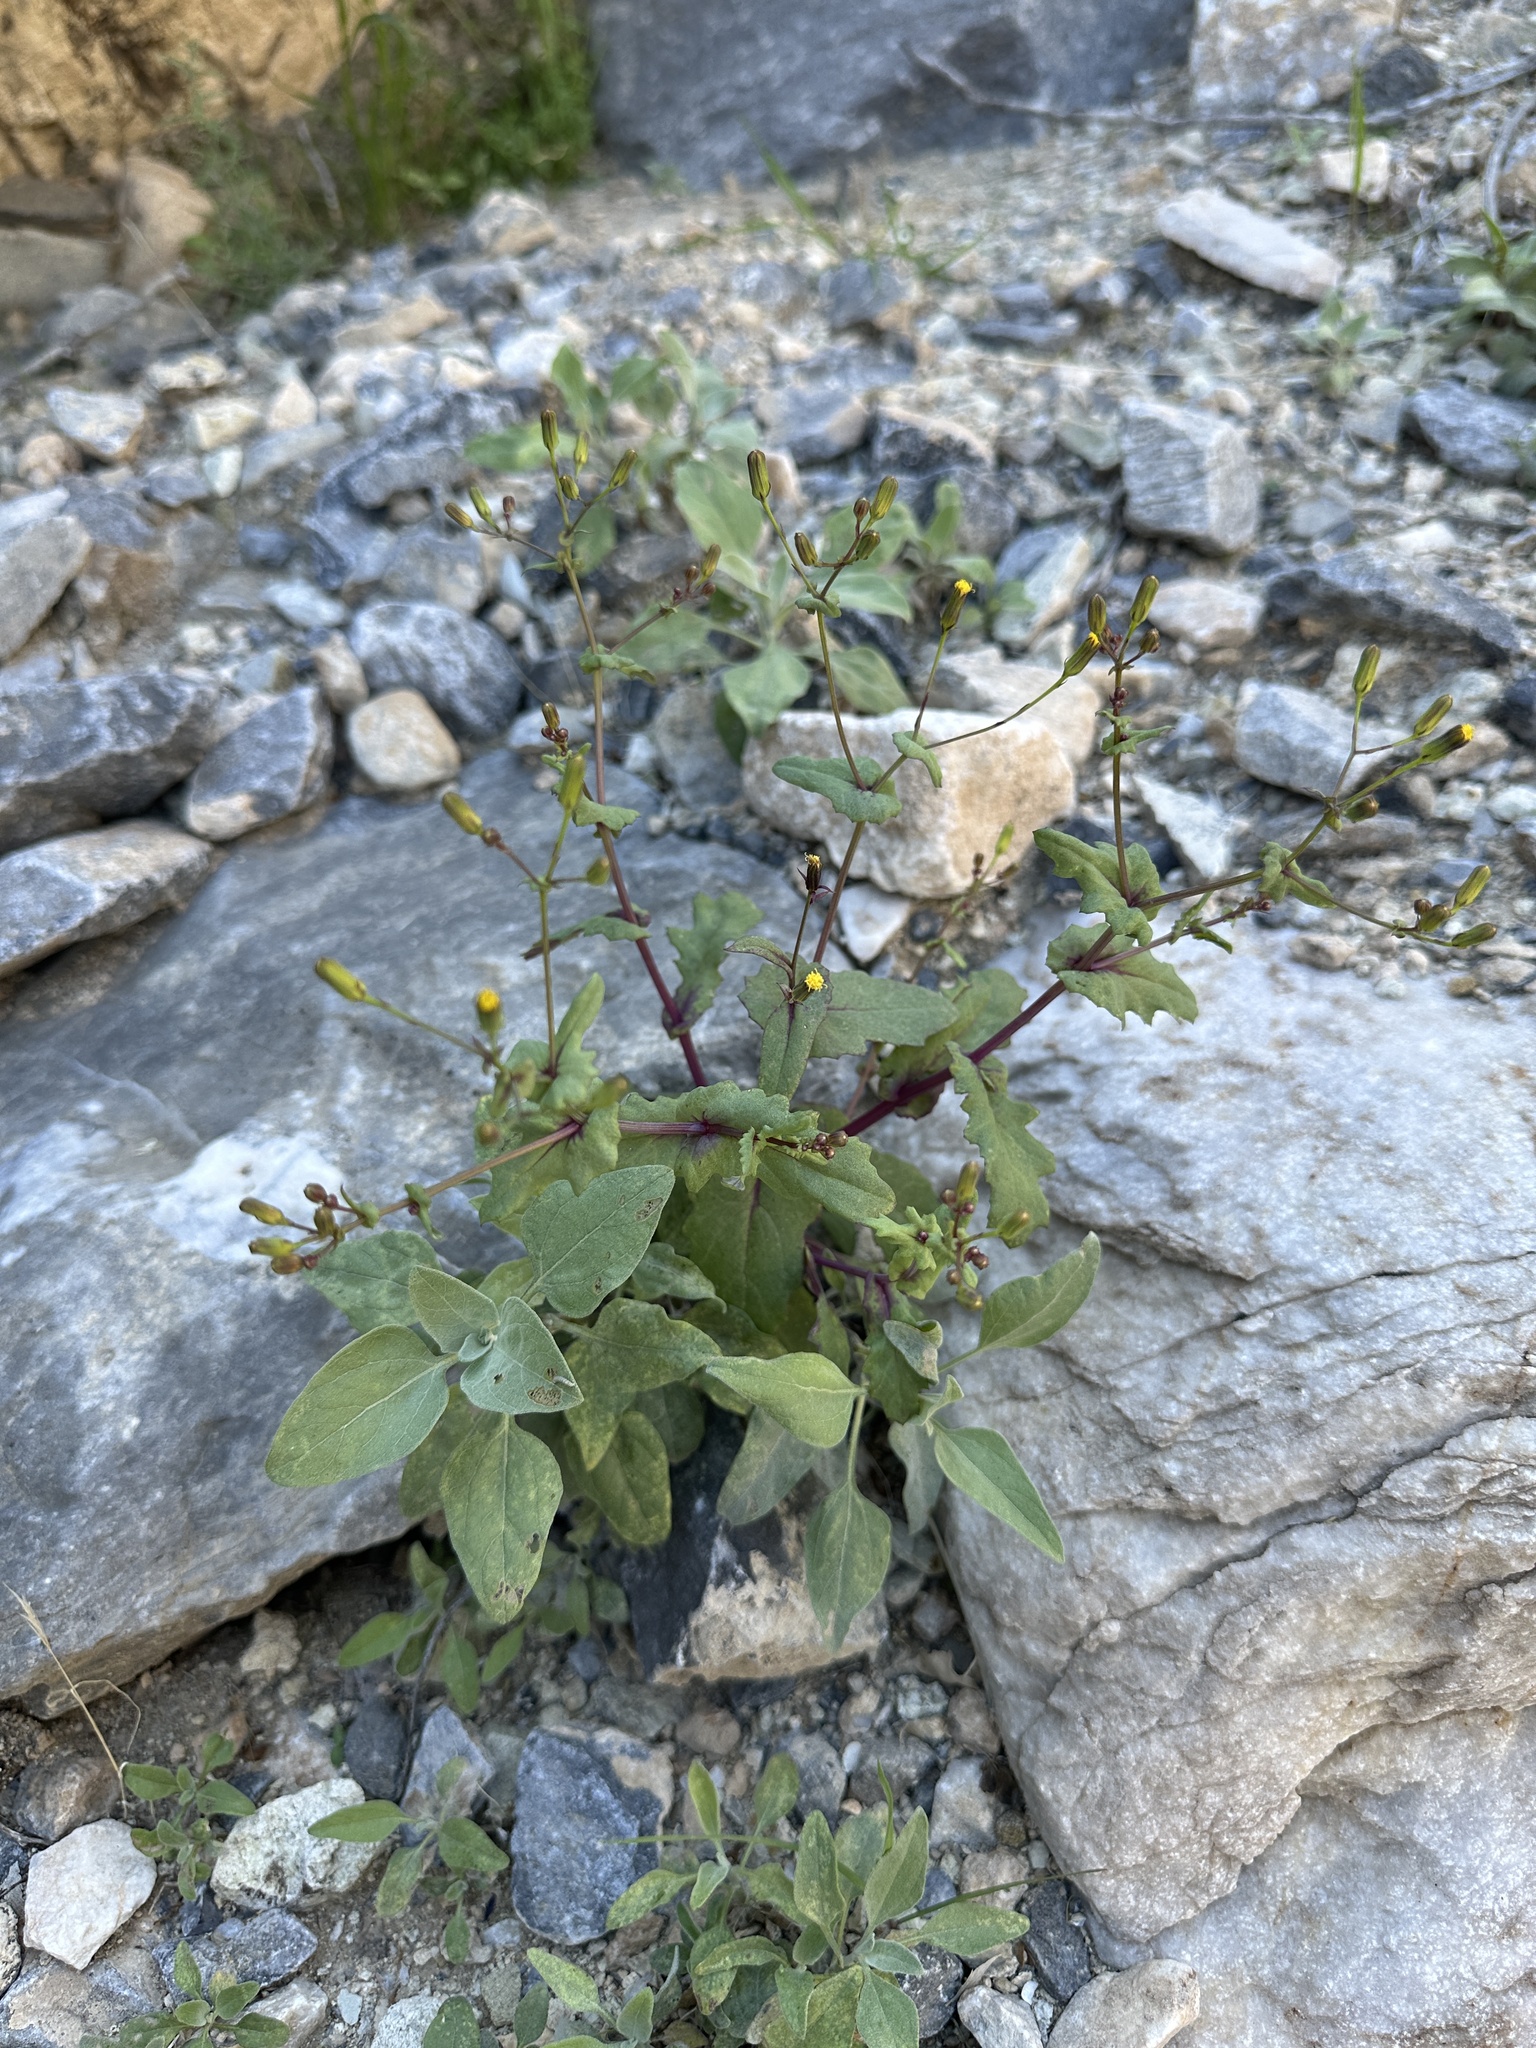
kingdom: Plantae
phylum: Tracheophyta
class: Magnoliopsida
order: Asterales
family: Asteraceae
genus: Senecio
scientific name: Senecio mohavensis
